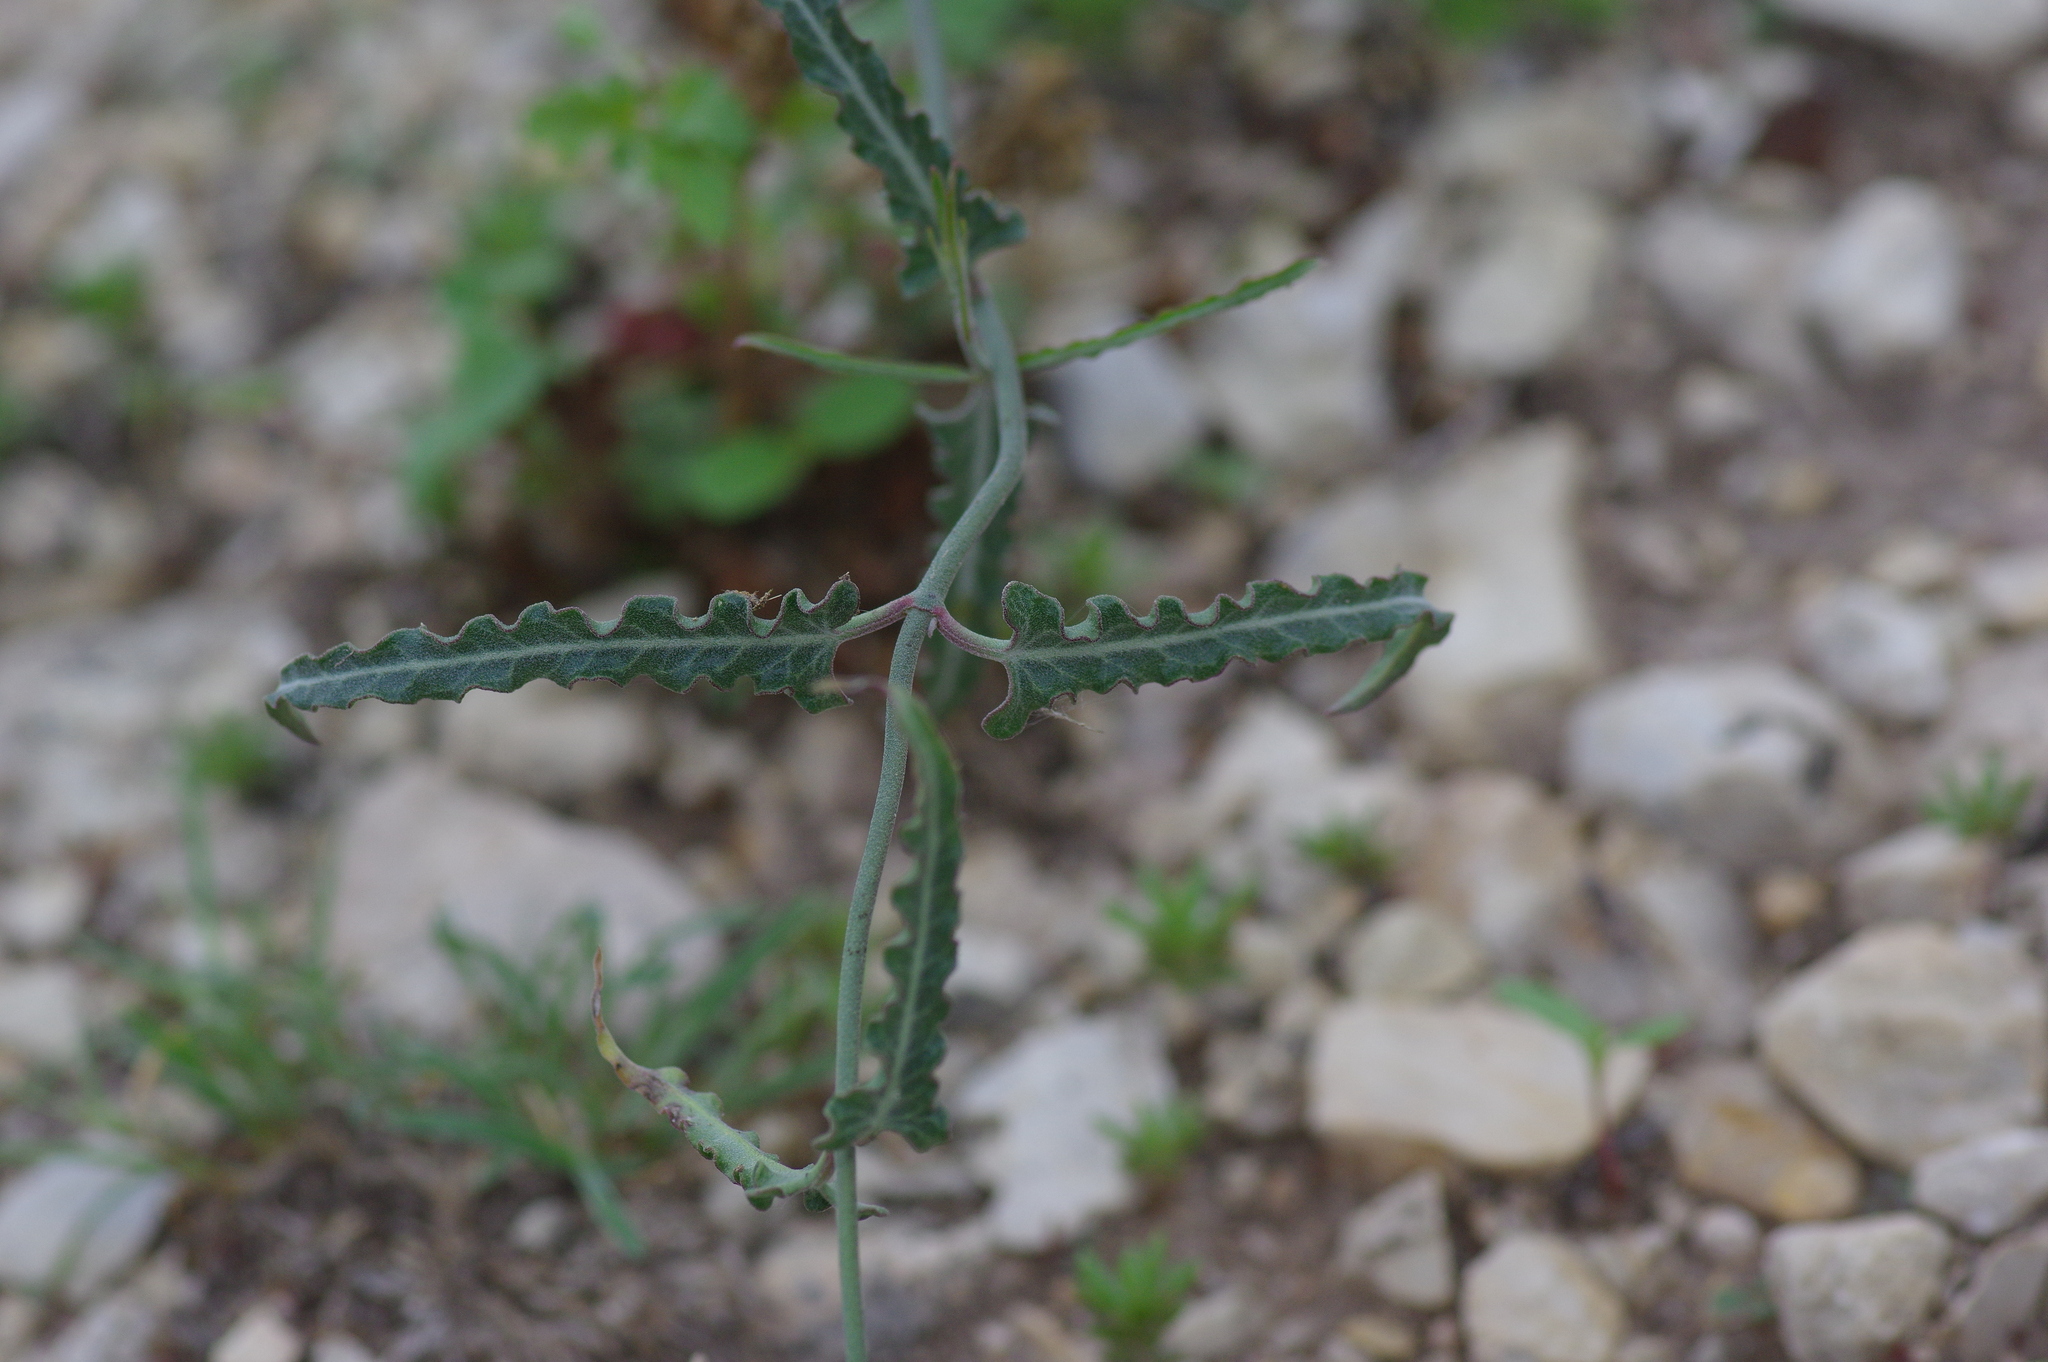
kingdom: Plantae
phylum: Tracheophyta
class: Magnoliopsida
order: Gentianales
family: Apocynaceae
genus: Funastrum
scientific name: Funastrum crispum
